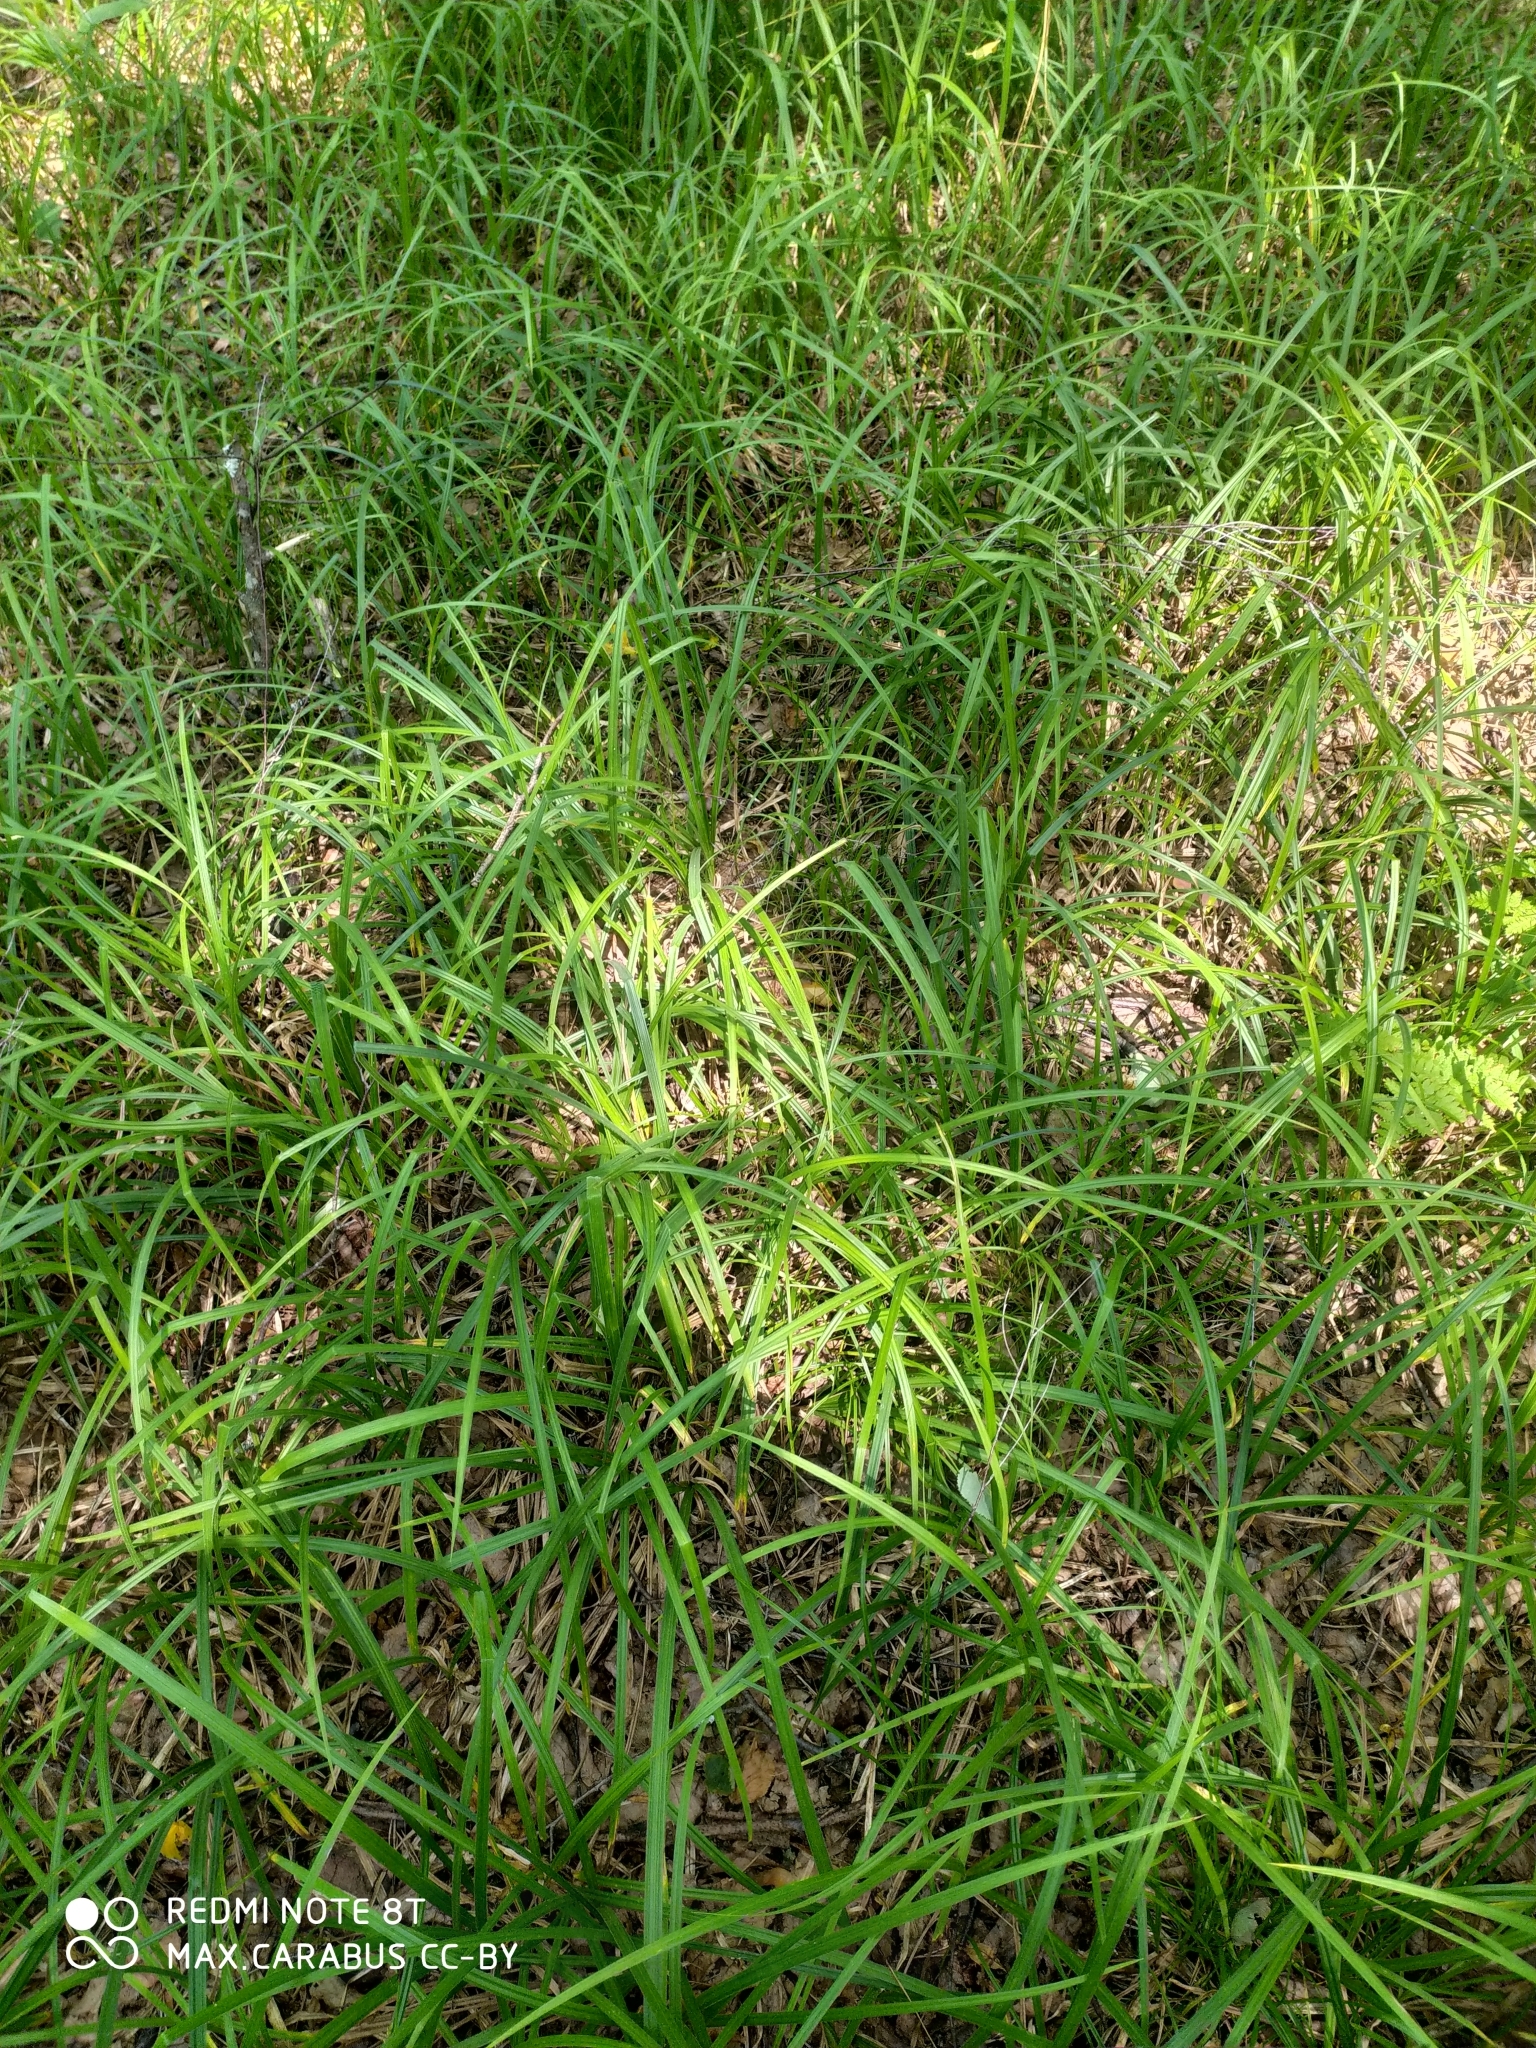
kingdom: Plantae
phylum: Tracheophyta
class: Liliopsida
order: Poales
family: Cyperaceae
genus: Carex
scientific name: Carex pilosa
